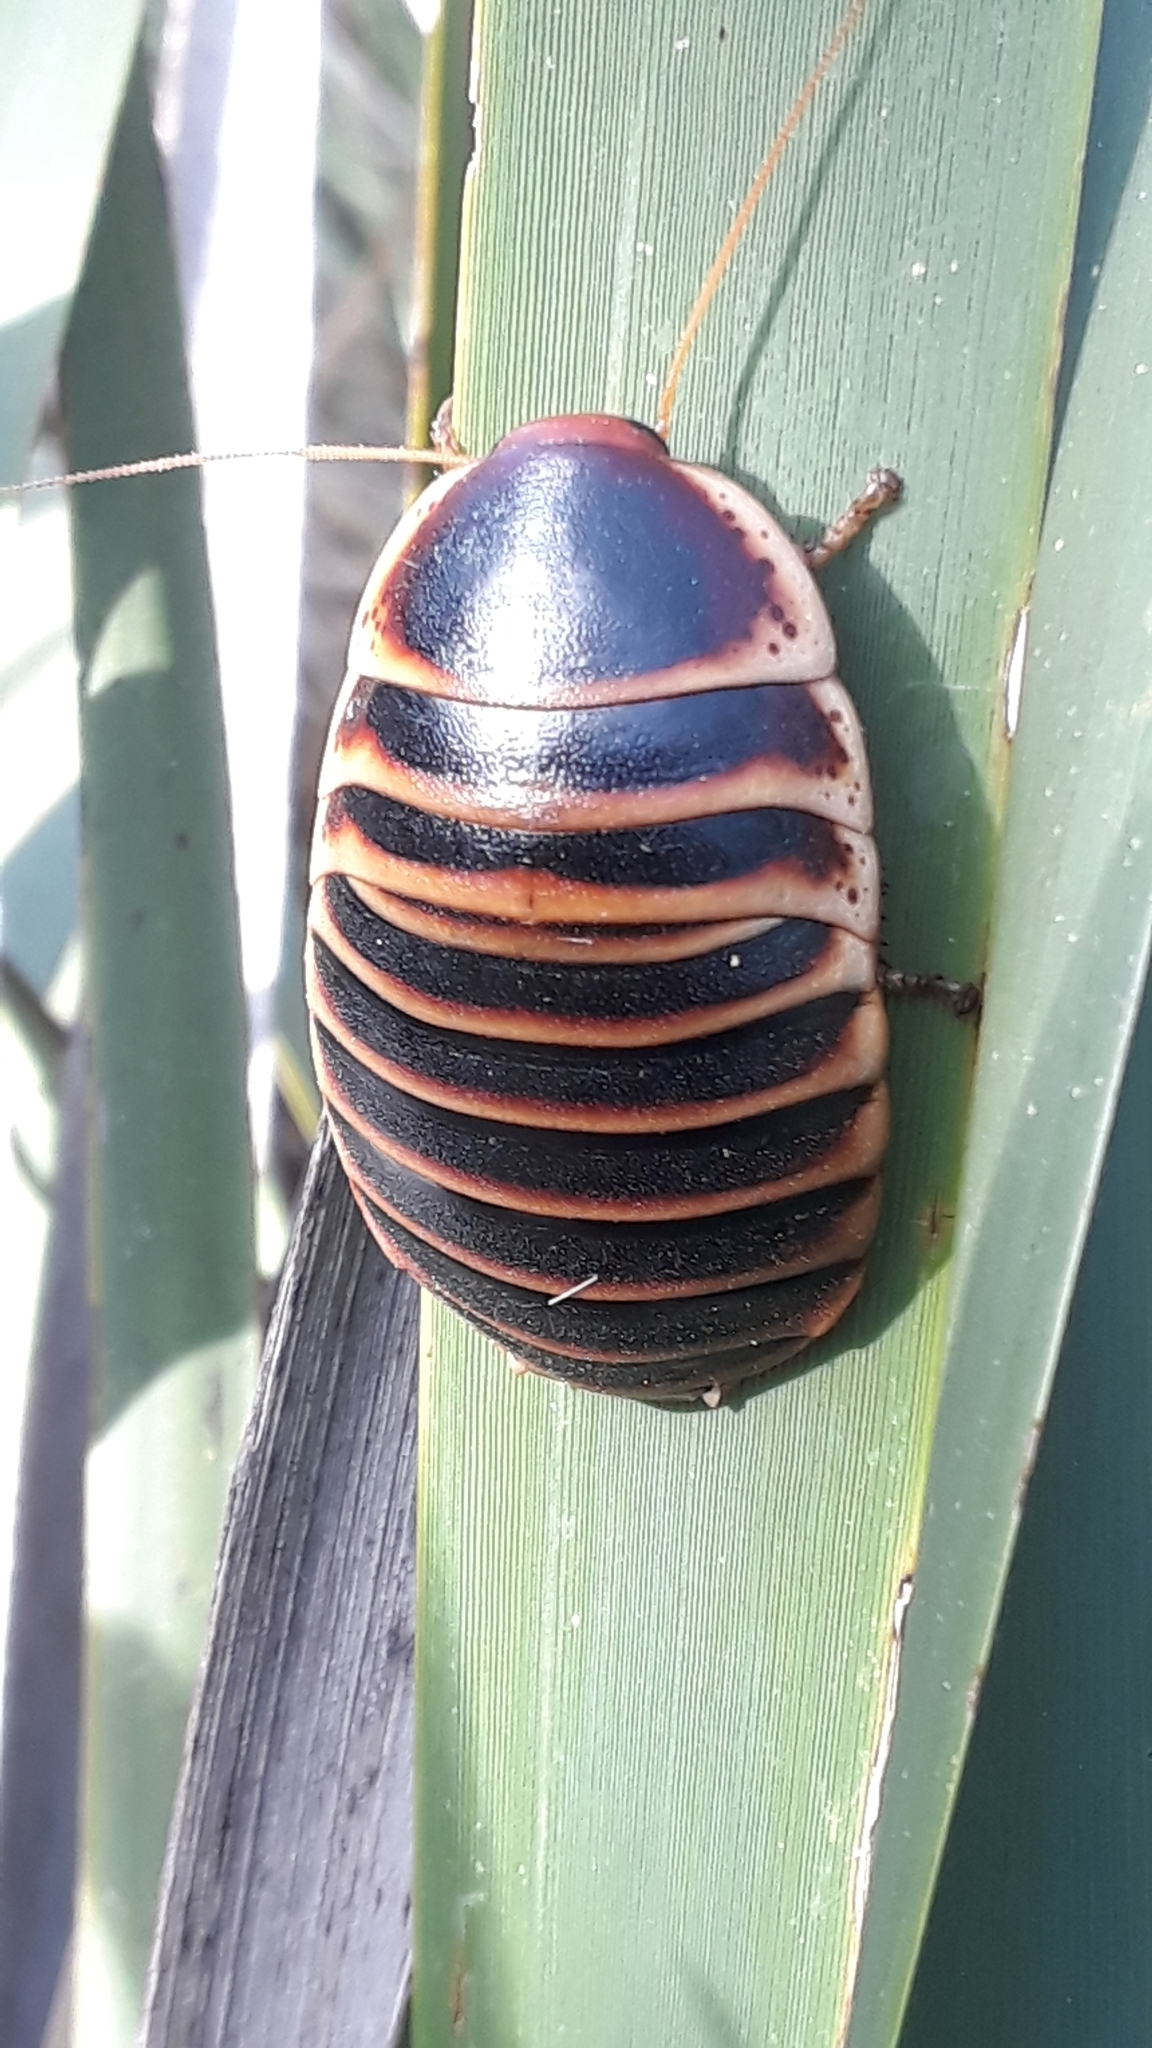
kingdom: Animalia
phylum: Arthropoda
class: Insecta
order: Blattodea
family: Blaberidae
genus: Aptera
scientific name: Aptera fusca
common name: Cape mountain cockroach
